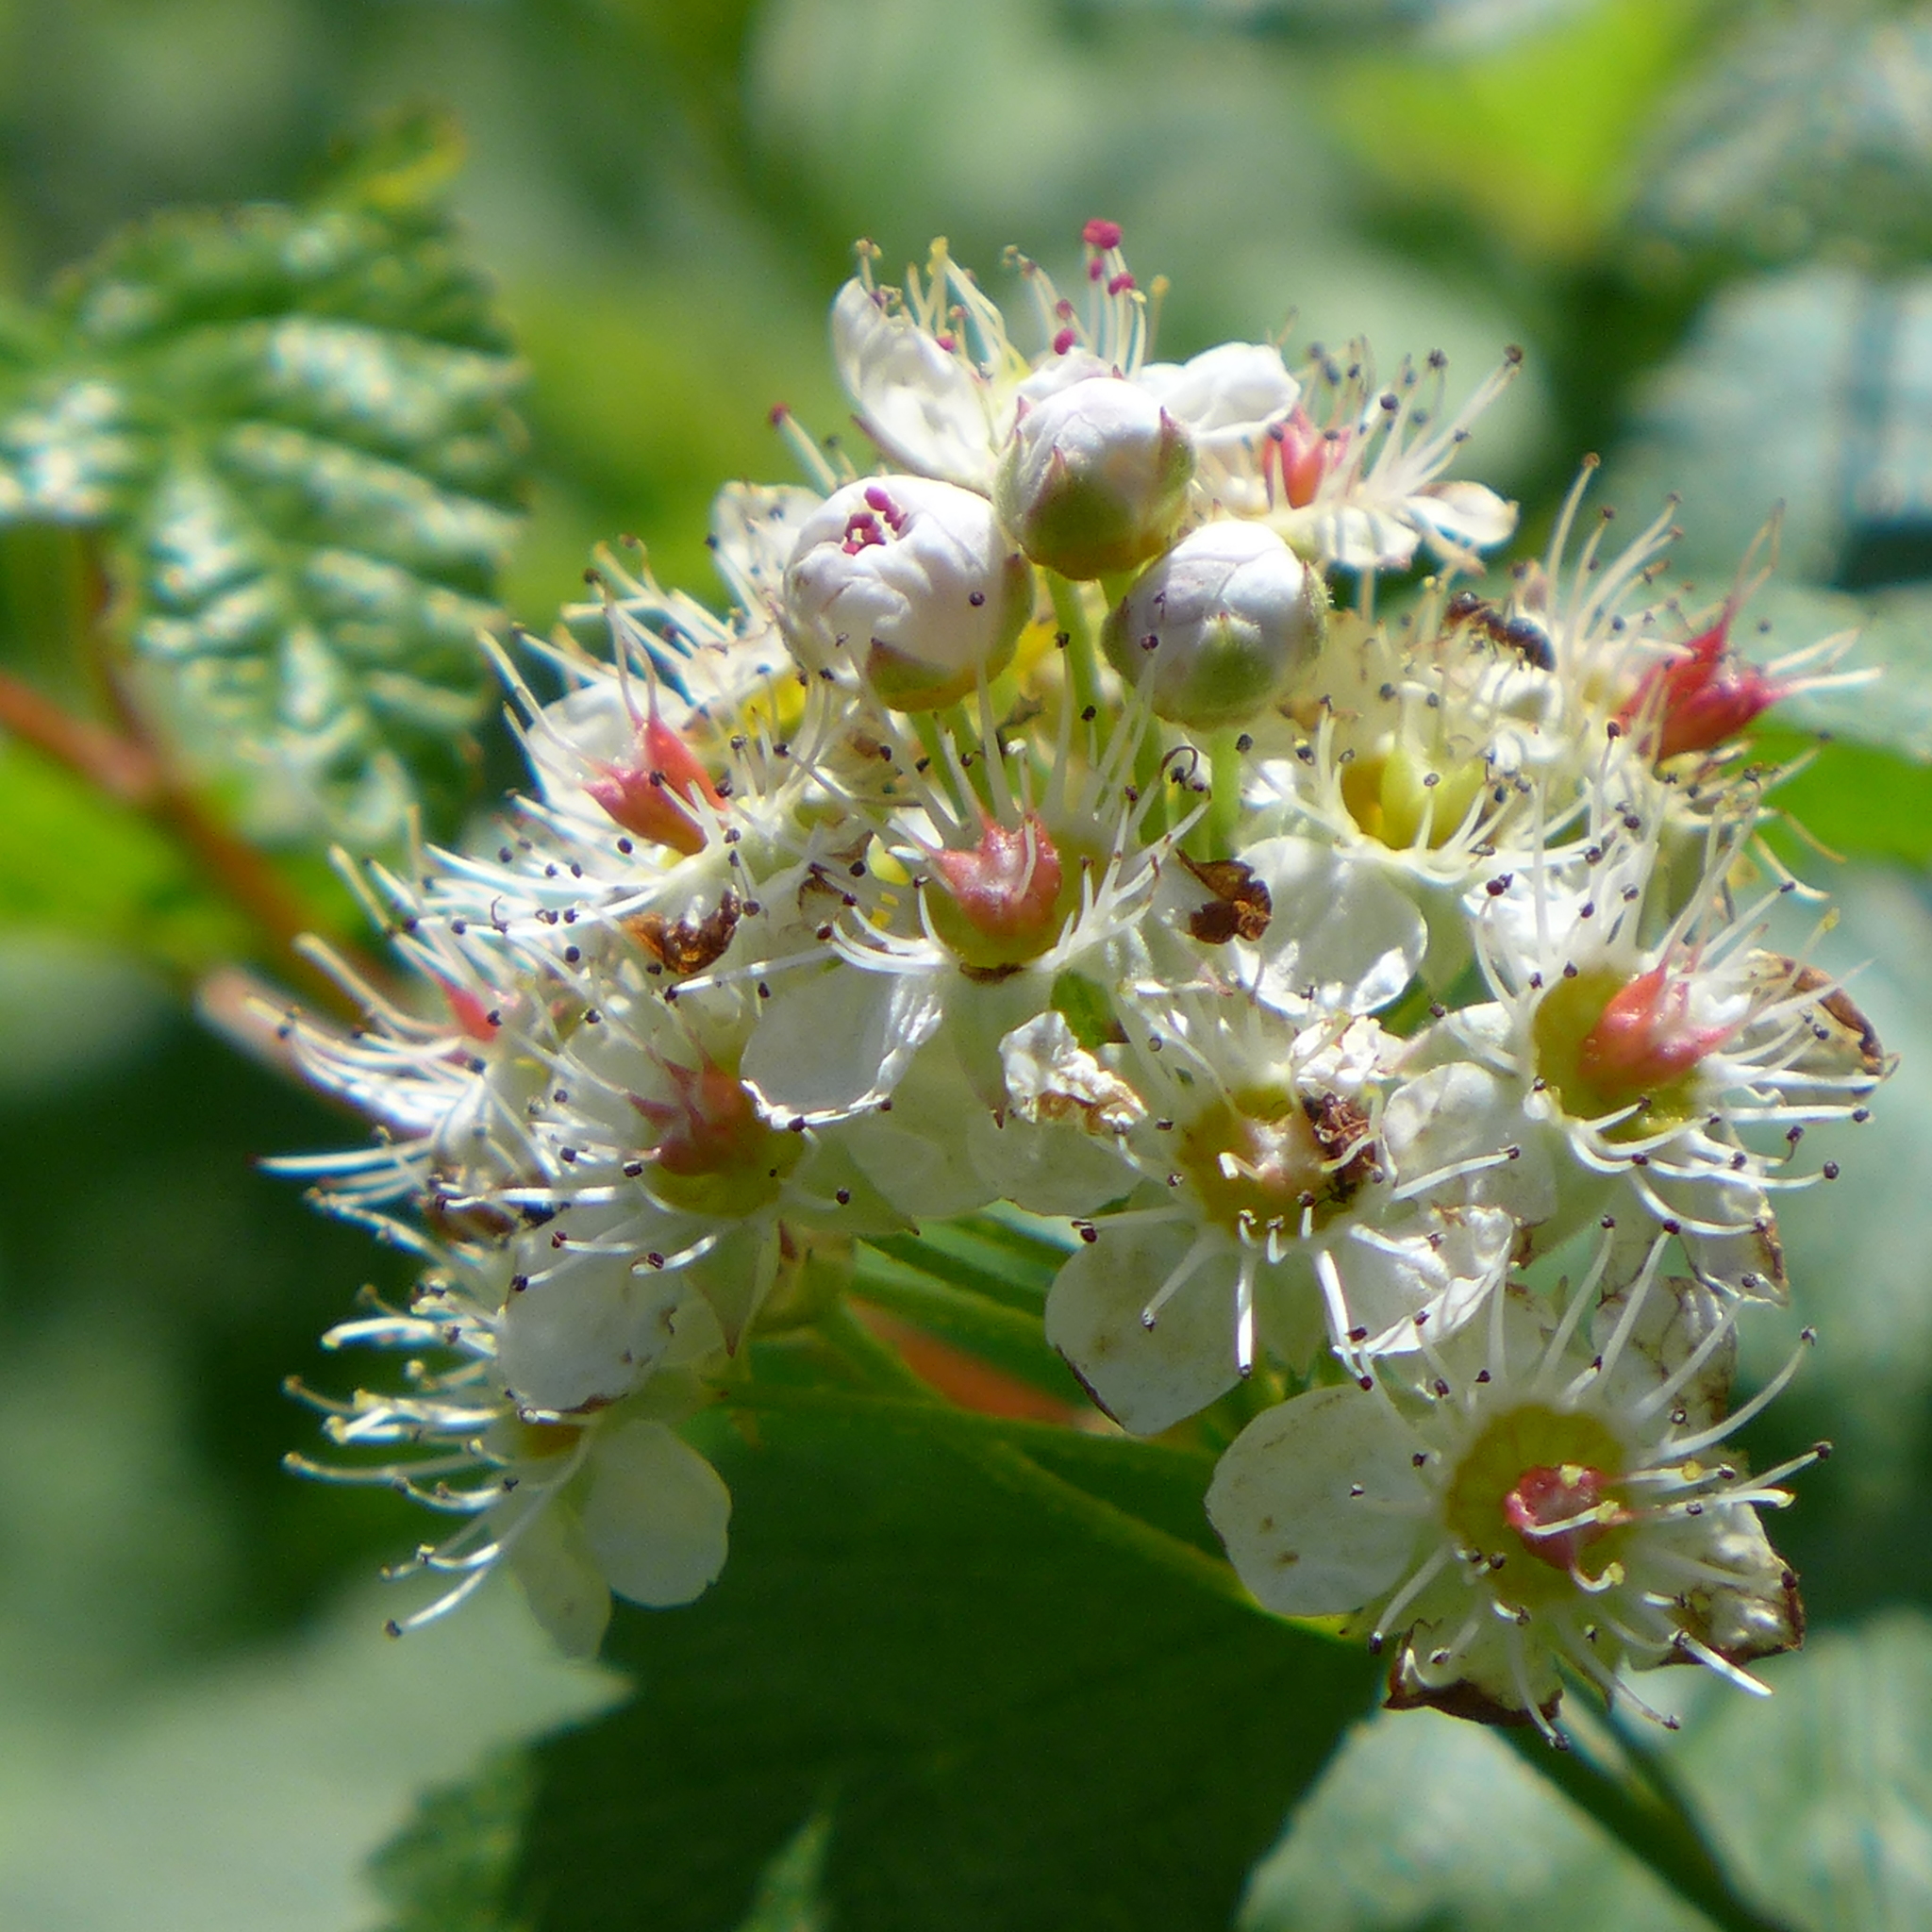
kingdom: Plantae
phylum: Tracheophyta
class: Magnoliopsida
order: Rosales
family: Rosaceae
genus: Physocarpus
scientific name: Physocarpus capitatus
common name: Pacific ninebark
